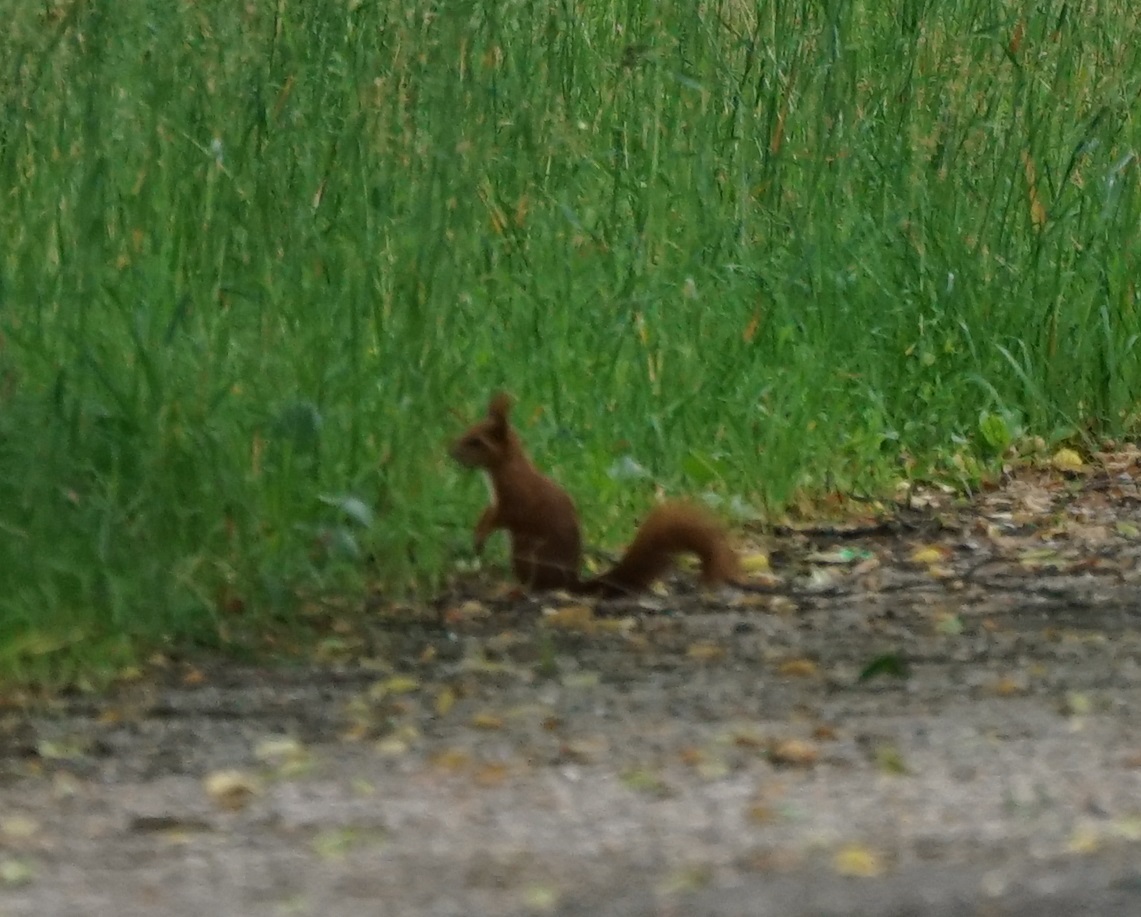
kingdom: Animalia
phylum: Chordata
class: Mammalia
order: Rodentia
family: Sciuridae
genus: Sciurus
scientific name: Sciurus vulgaris
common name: Eurasian red squirrel
